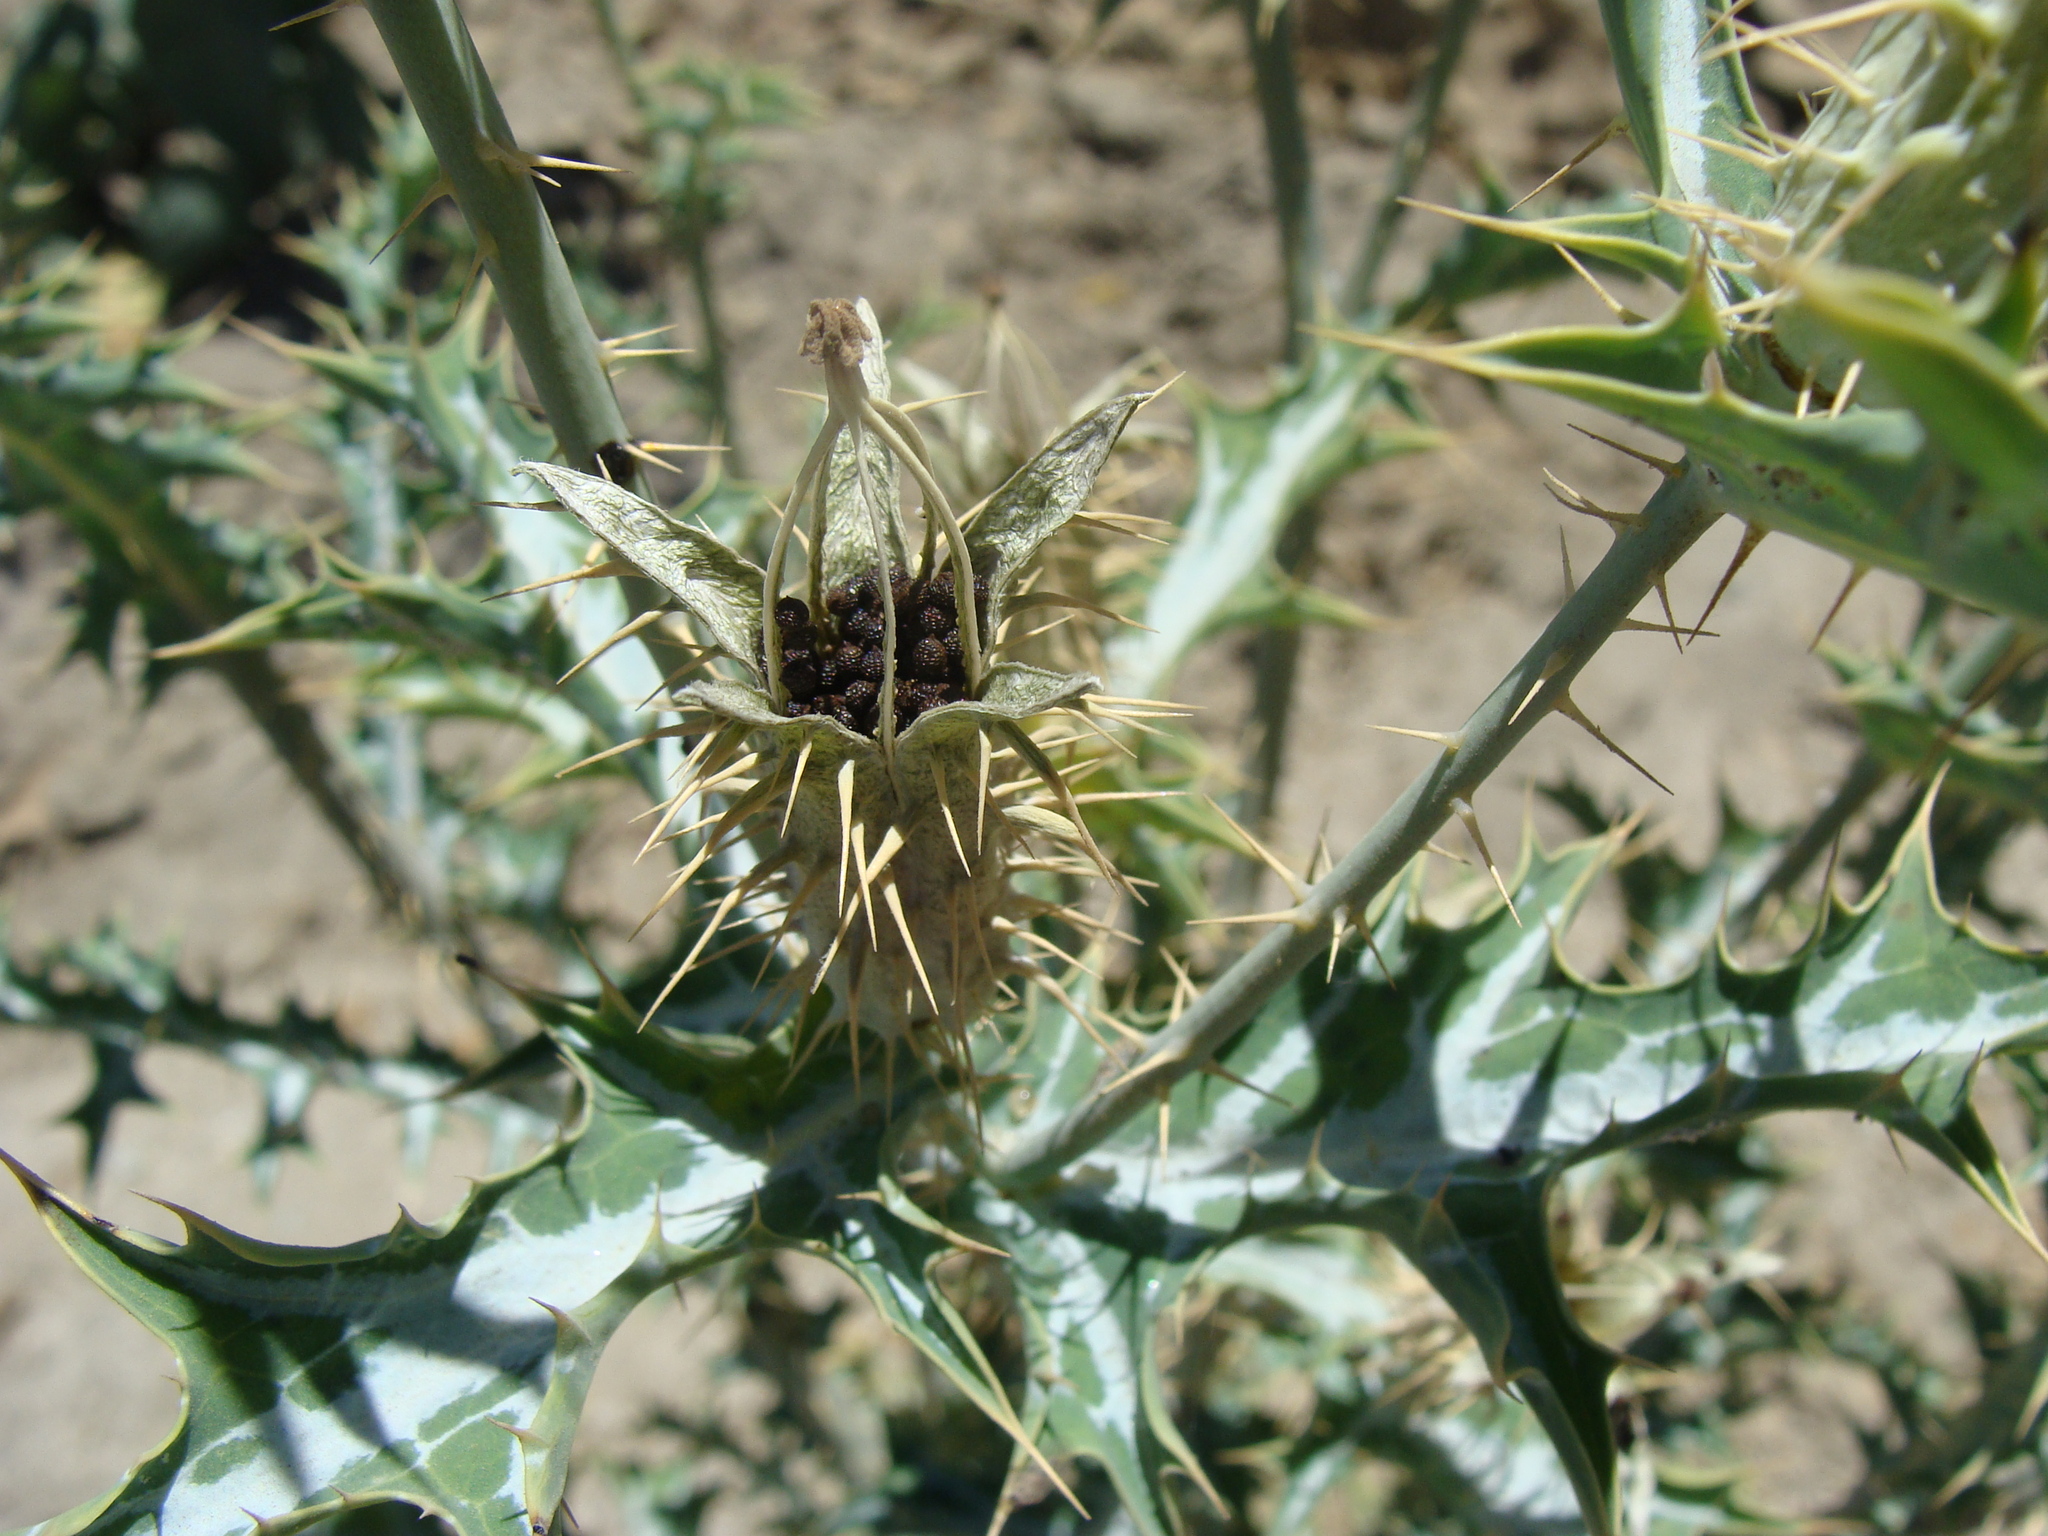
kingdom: Plantae
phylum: Tracheophyta
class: Magnoliopsida
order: Ranunculales
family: Papaveraceae
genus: Argemone
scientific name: Argemone ochroleuca
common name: White-flower mexican-poppy
